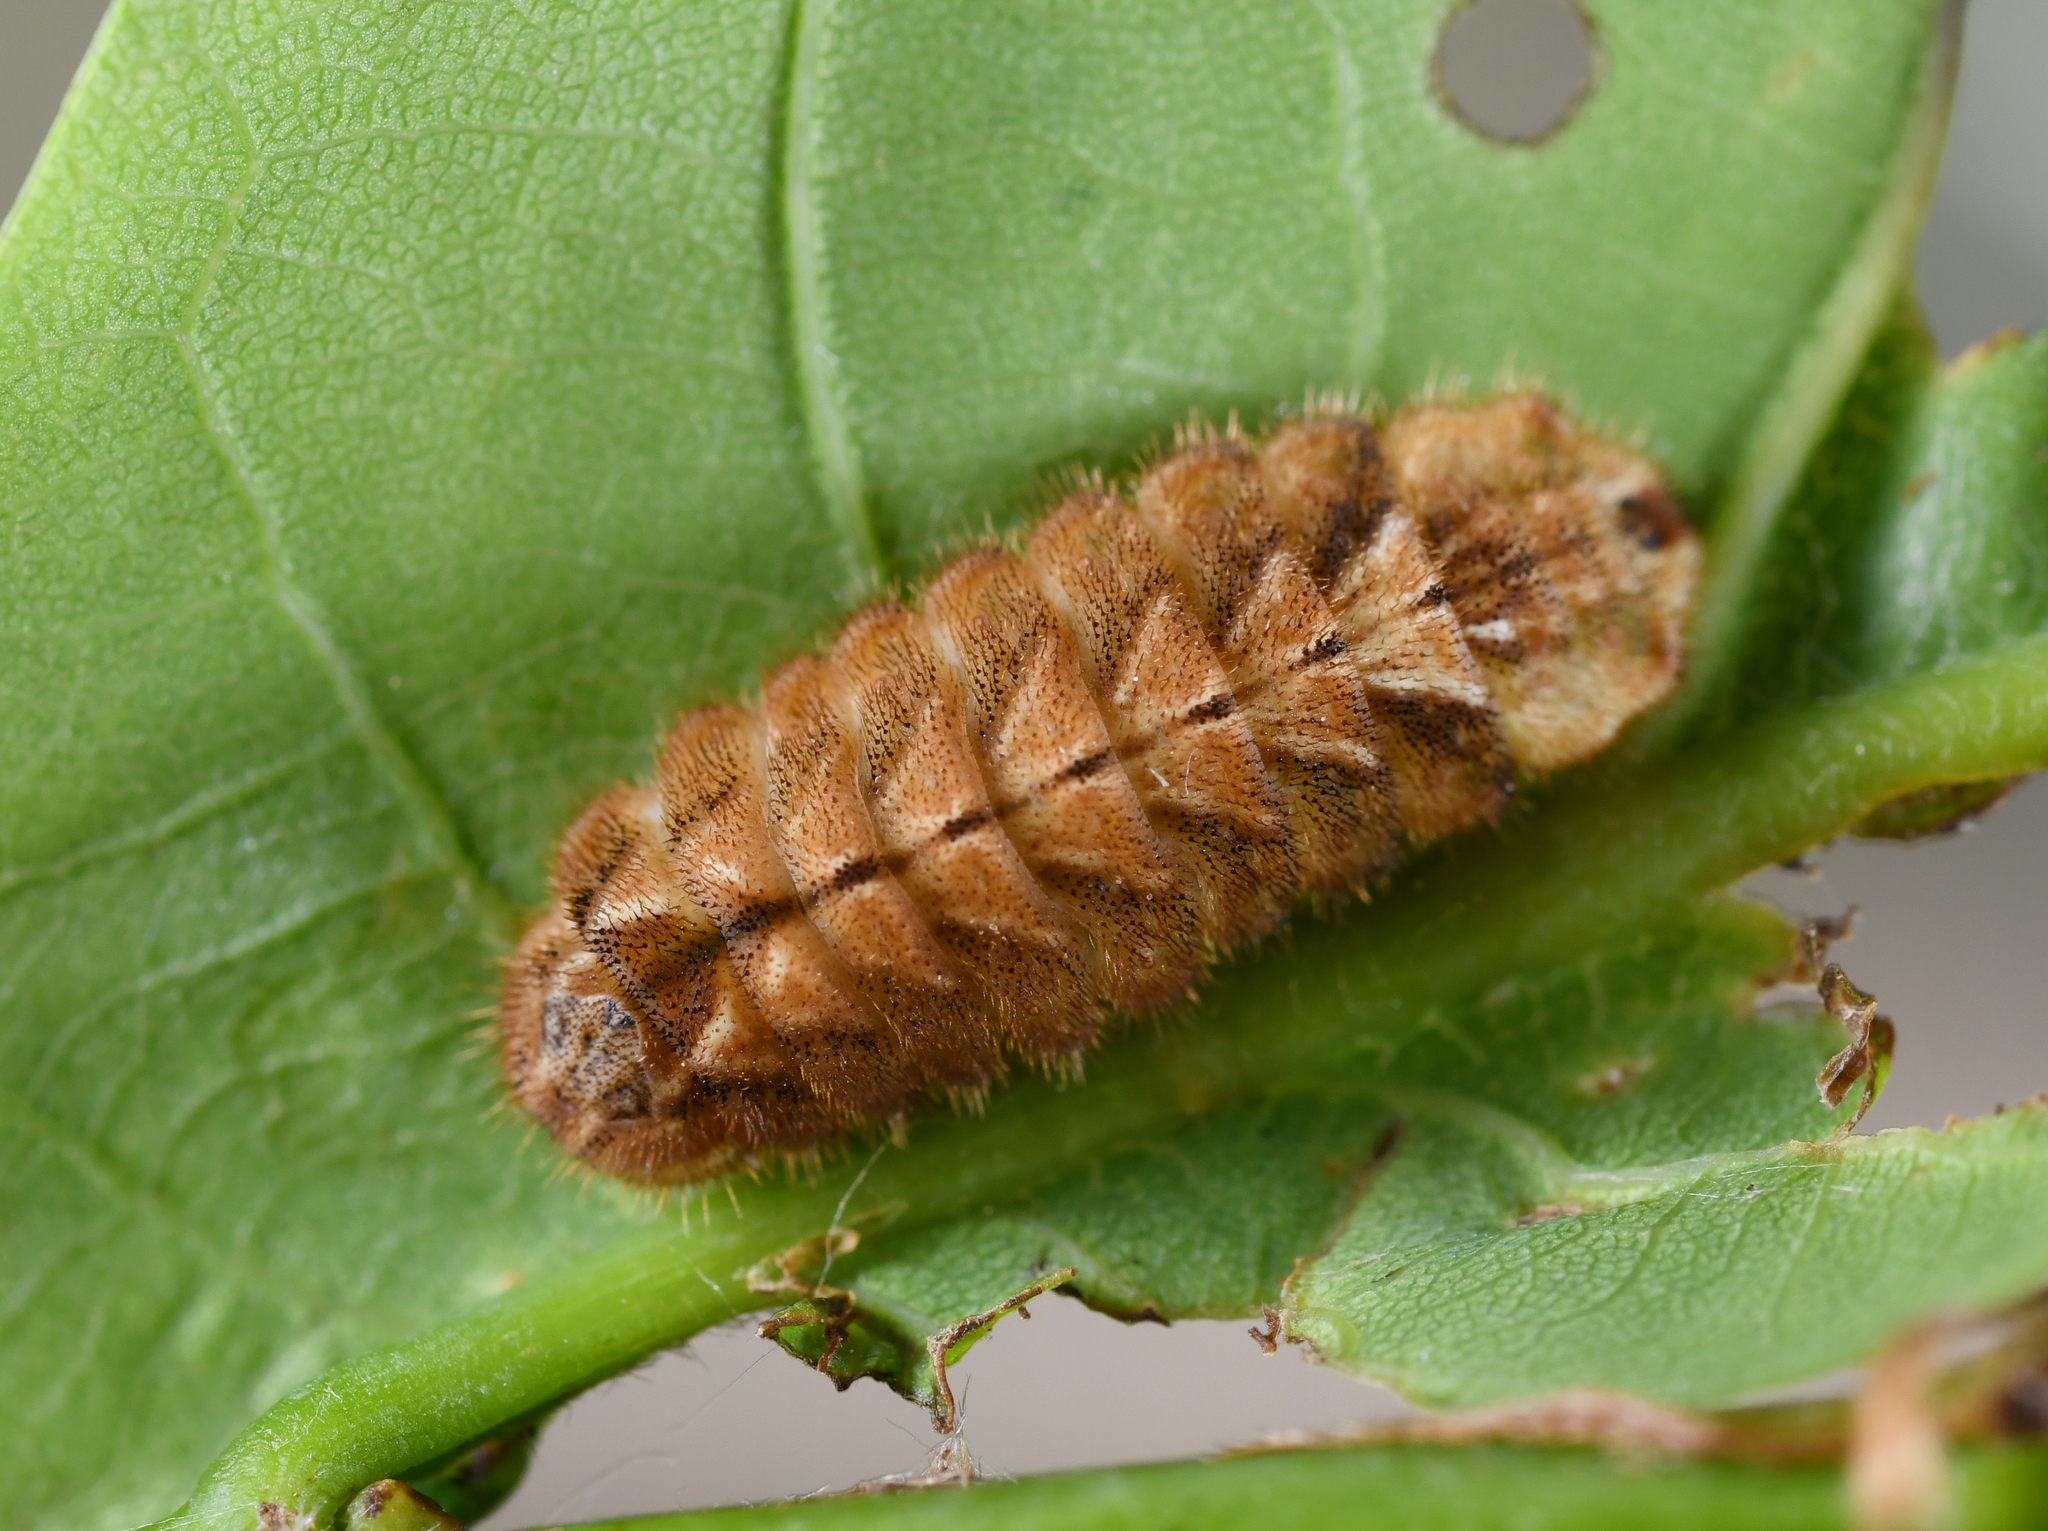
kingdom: Animalia
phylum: Arthropoda
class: Insecta
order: Lepidoptera
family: Lycaenidae
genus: Quercusia
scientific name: Quercusia quercus
